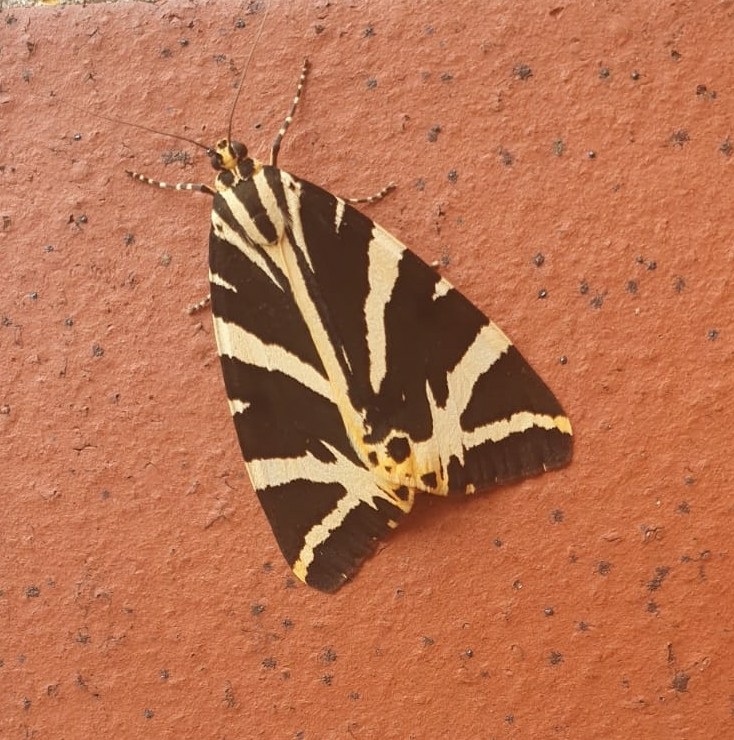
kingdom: Animalia
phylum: Arthropoda
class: Insecta
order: Lepidoptera
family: Erebidae
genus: Euplagia
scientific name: Euplagia quadripunctaria
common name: Jersey tiger
